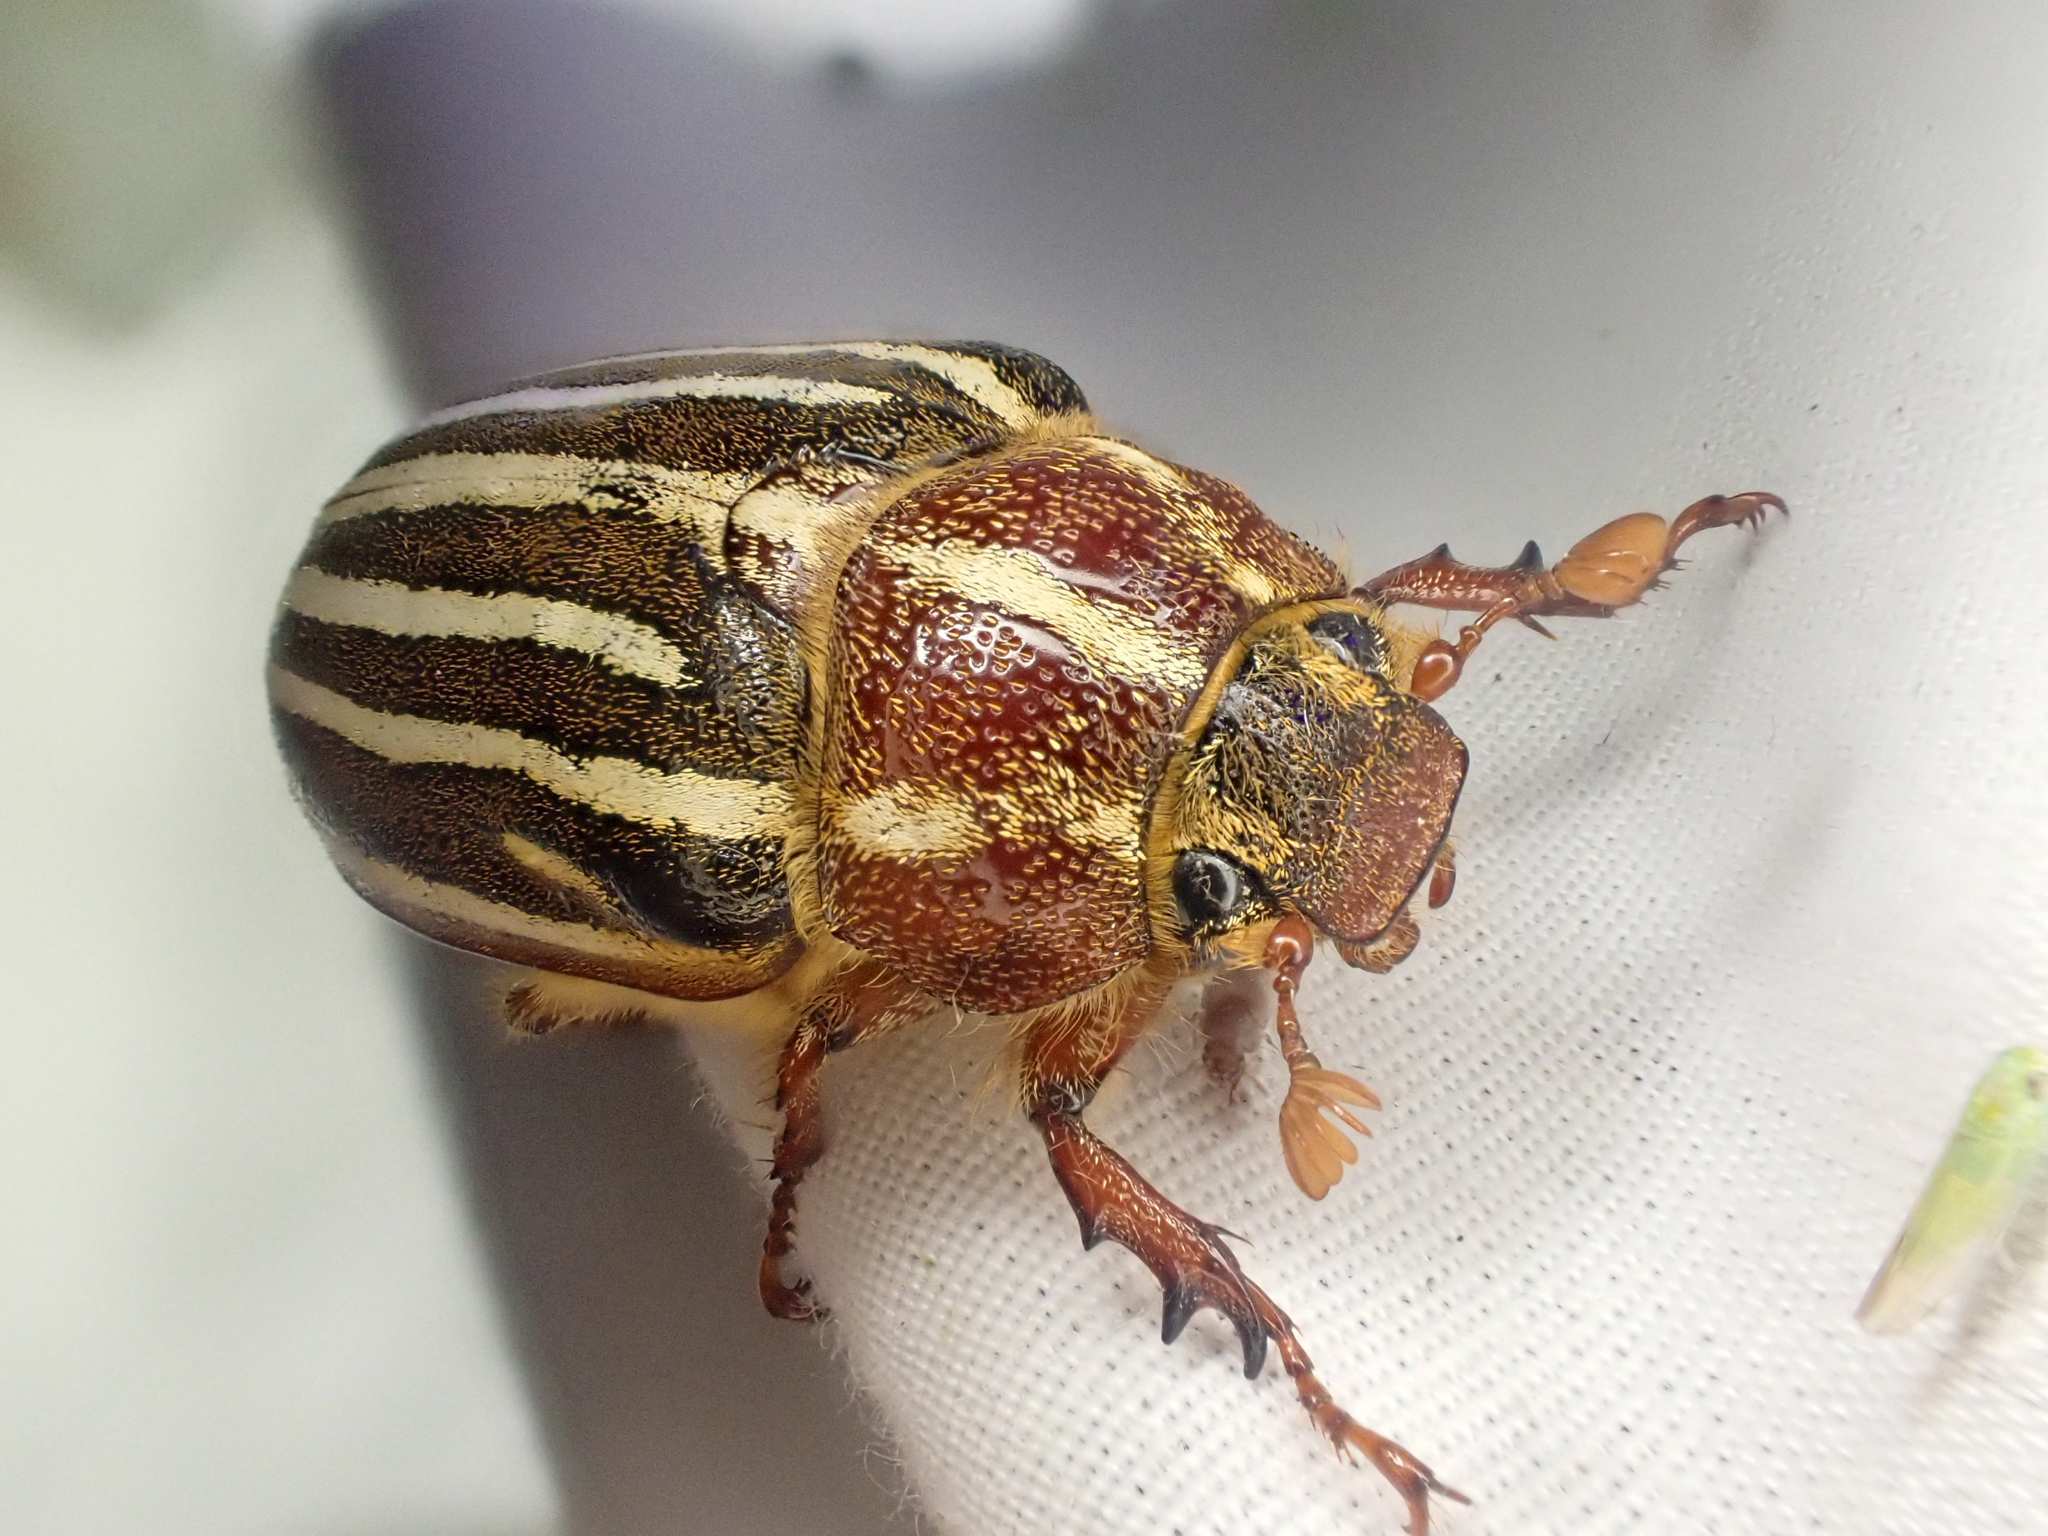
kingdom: Animalia
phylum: Arthropoda
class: Insecta
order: Coleoptera
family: Scarabaeidae
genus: Polyphylla
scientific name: Polyphylla crinita
